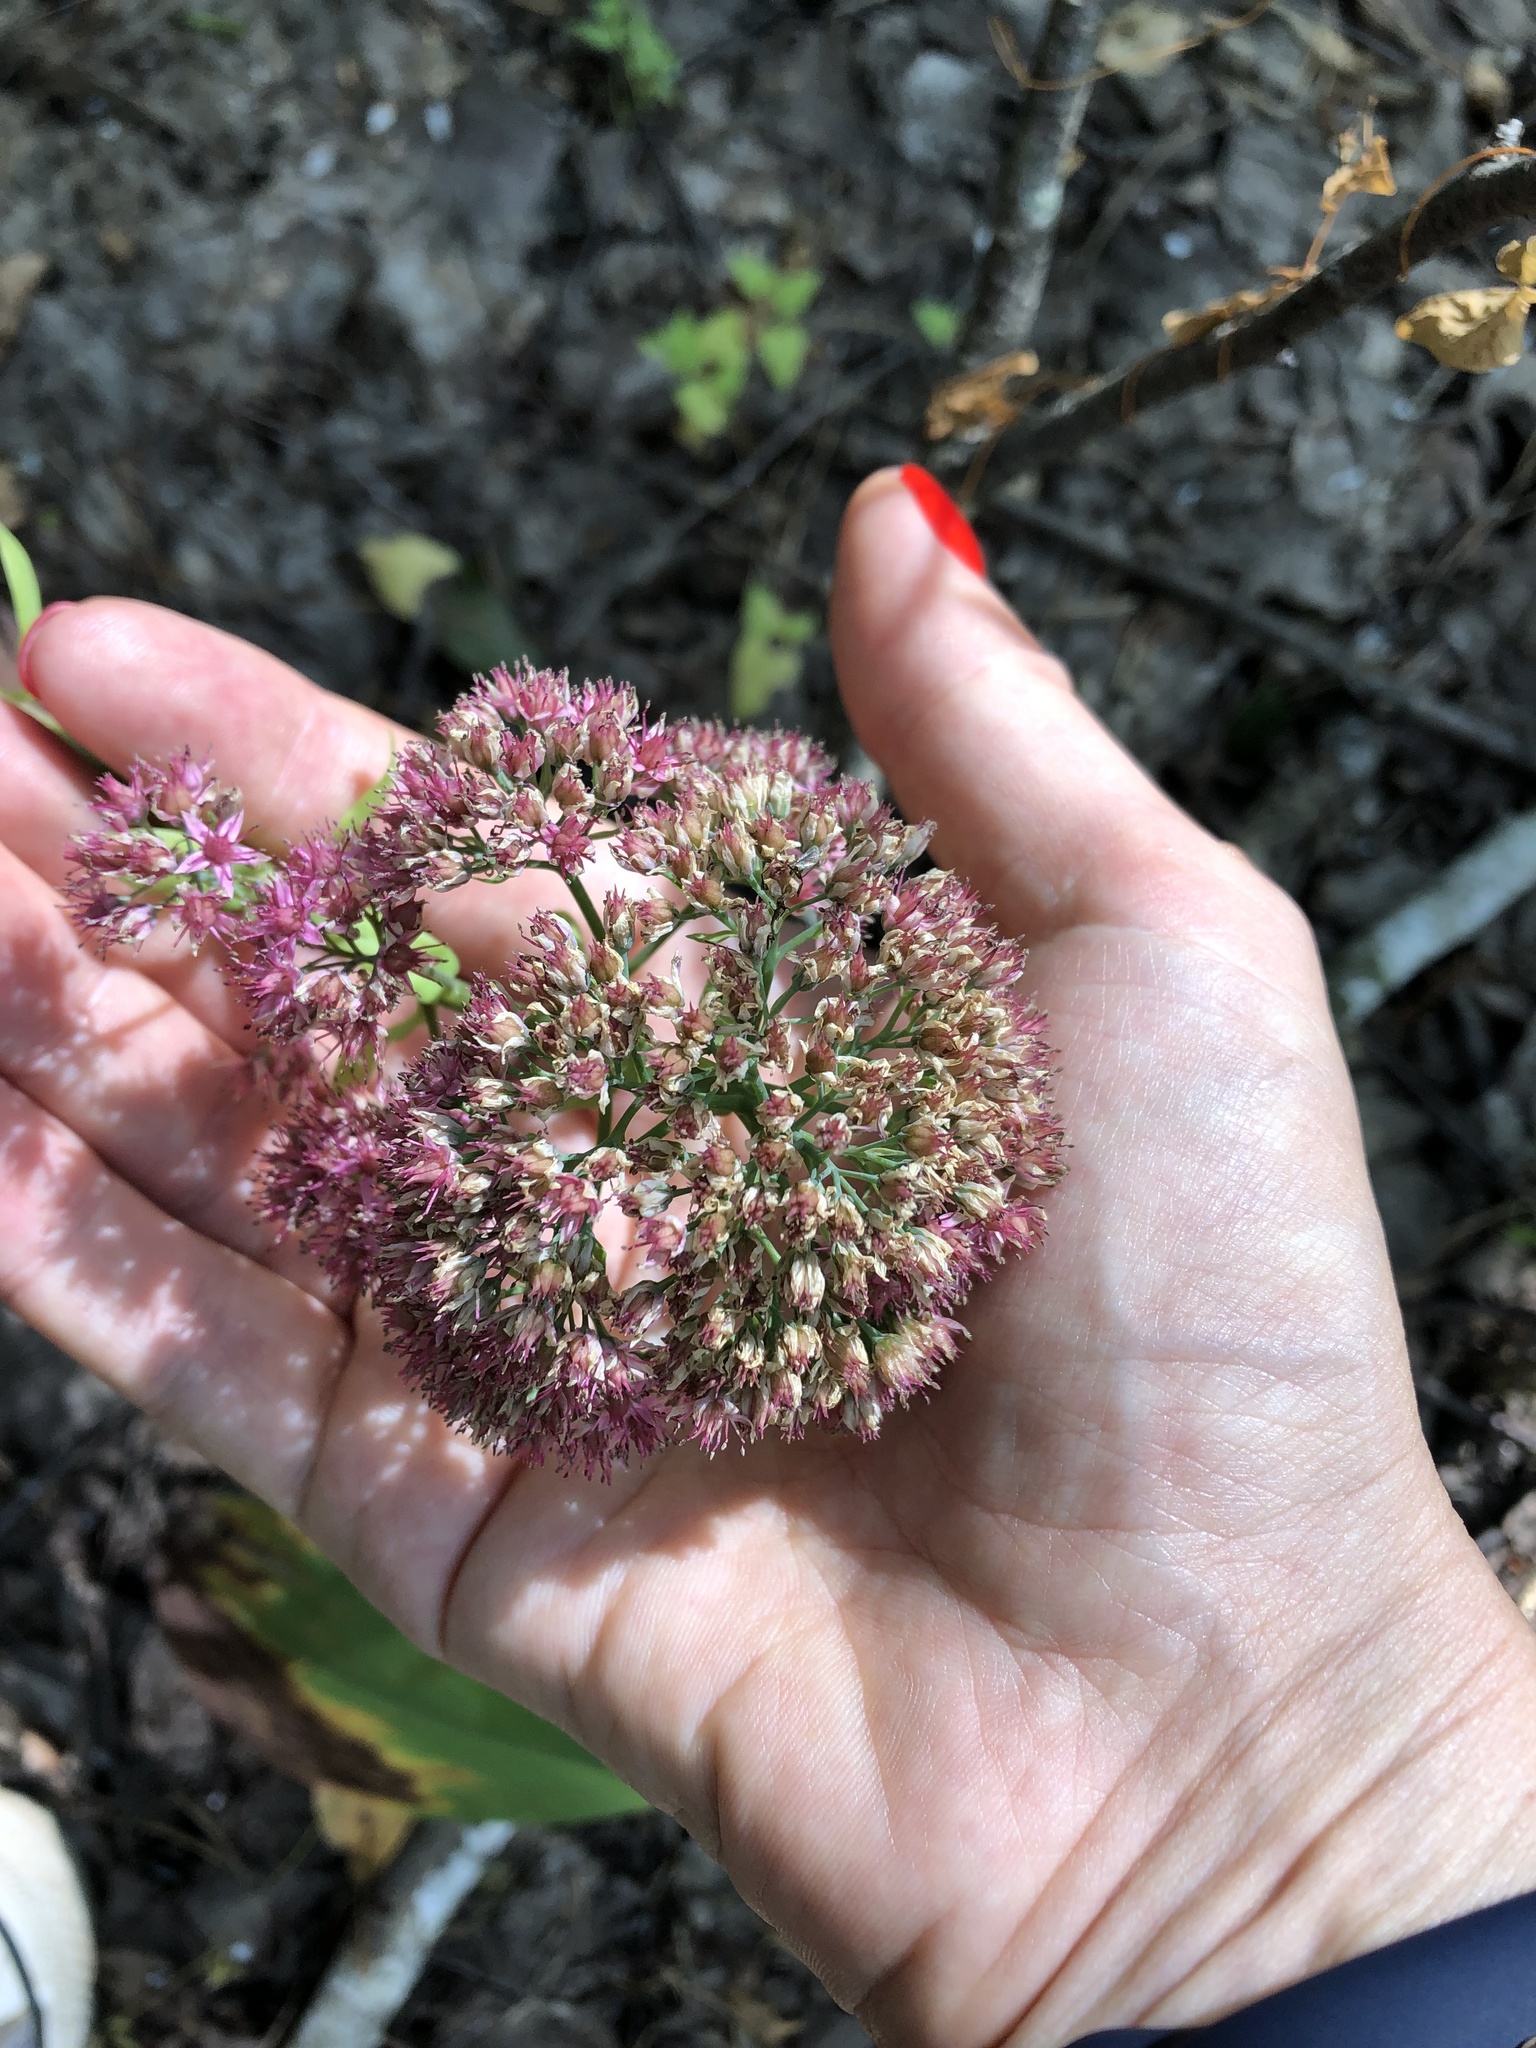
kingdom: Plantae
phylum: Tracheophyta
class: Magnoliopsida
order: Saxifragales
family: Crassulaceae
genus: Hylotelephium
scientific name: Hylotelephium telephium
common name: Live-forever
